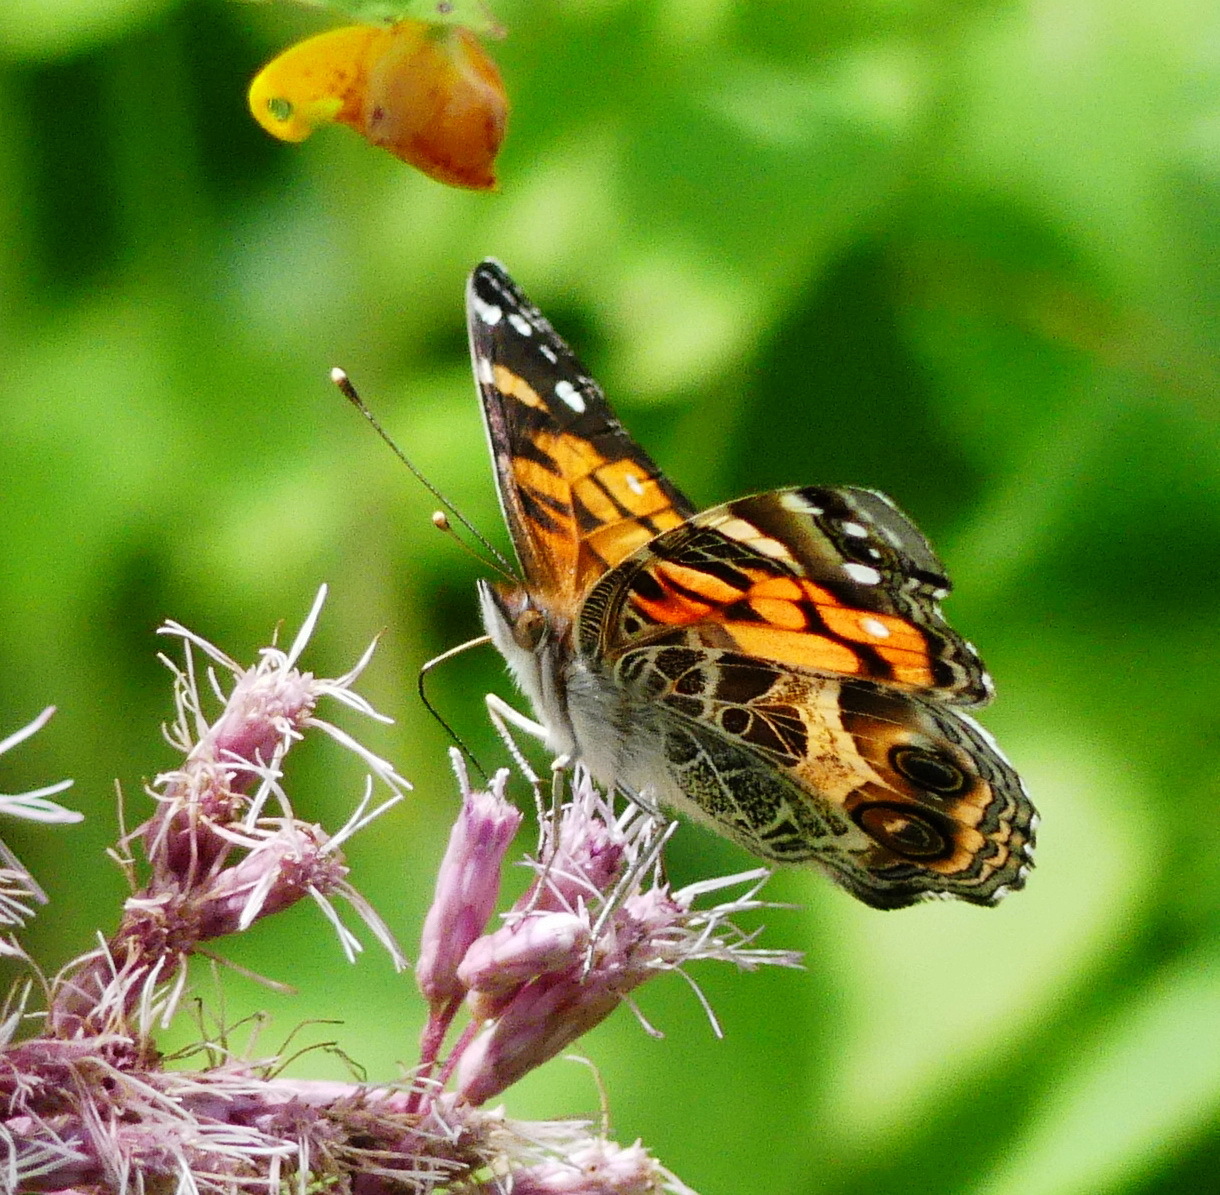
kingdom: Animalia
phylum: Arthropoda
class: Insecta
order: Lepidoptera
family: Nymphalidae
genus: Vanessa
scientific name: Vanessa virginiensis
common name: American lady
